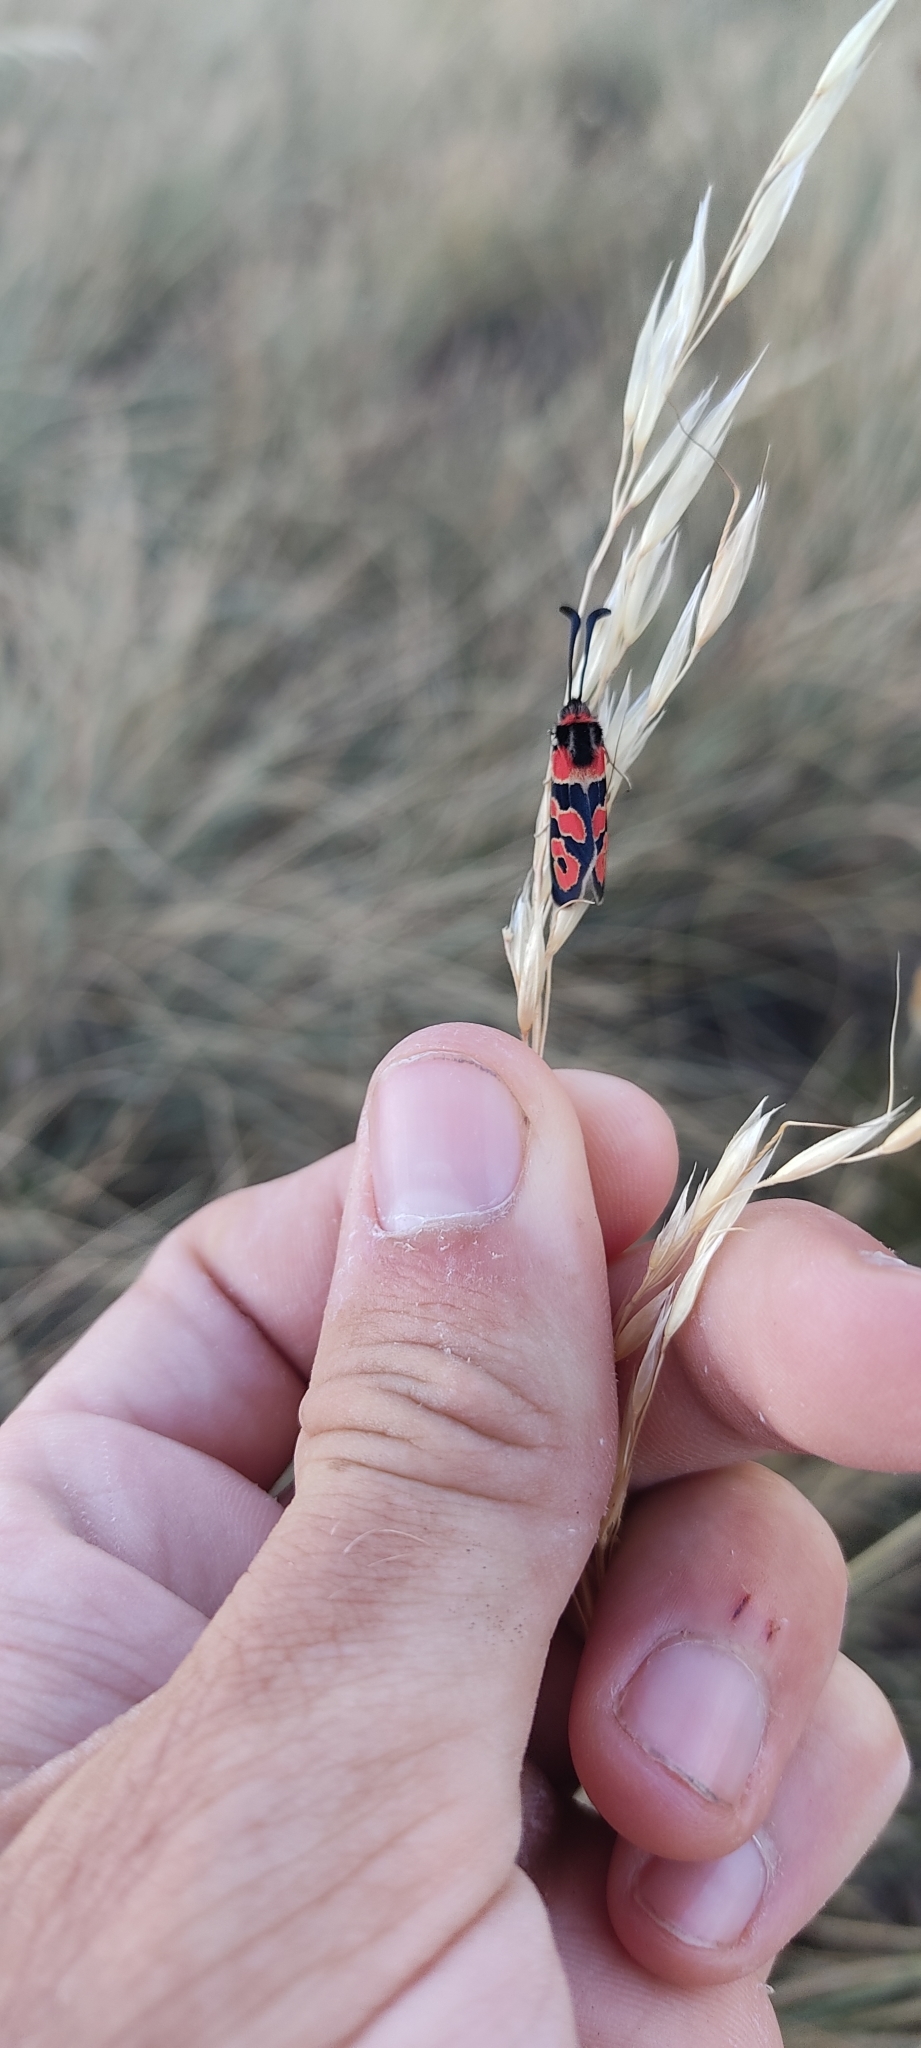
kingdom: Animalia
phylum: Arthropoda
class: Insecta
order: Lepidoptera
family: Zygaenidae
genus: Zygaena
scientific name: Zygaena fausta
